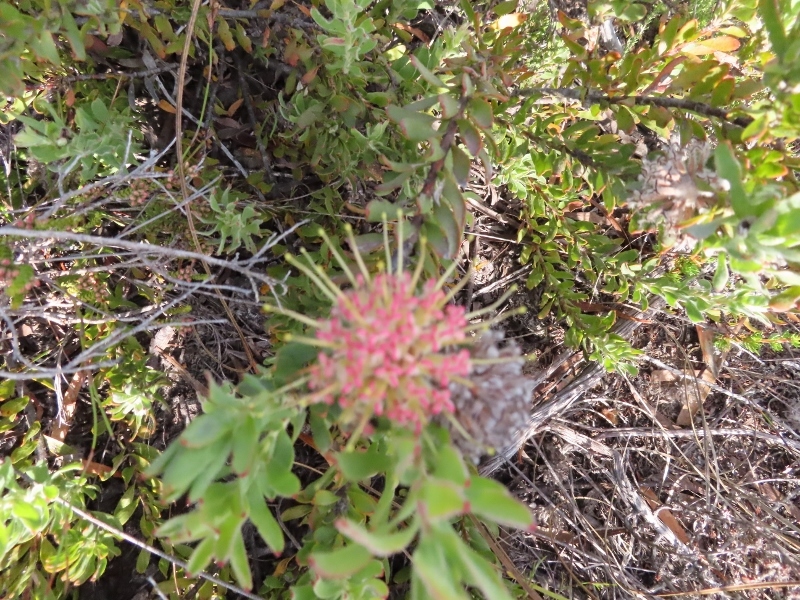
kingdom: Plantae
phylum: Tracheophyta
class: Magnoliopsida
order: Proteales
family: Proteaceae
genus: Leucospermum
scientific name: Leucospermum heterophyllum
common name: Trident pincushion
